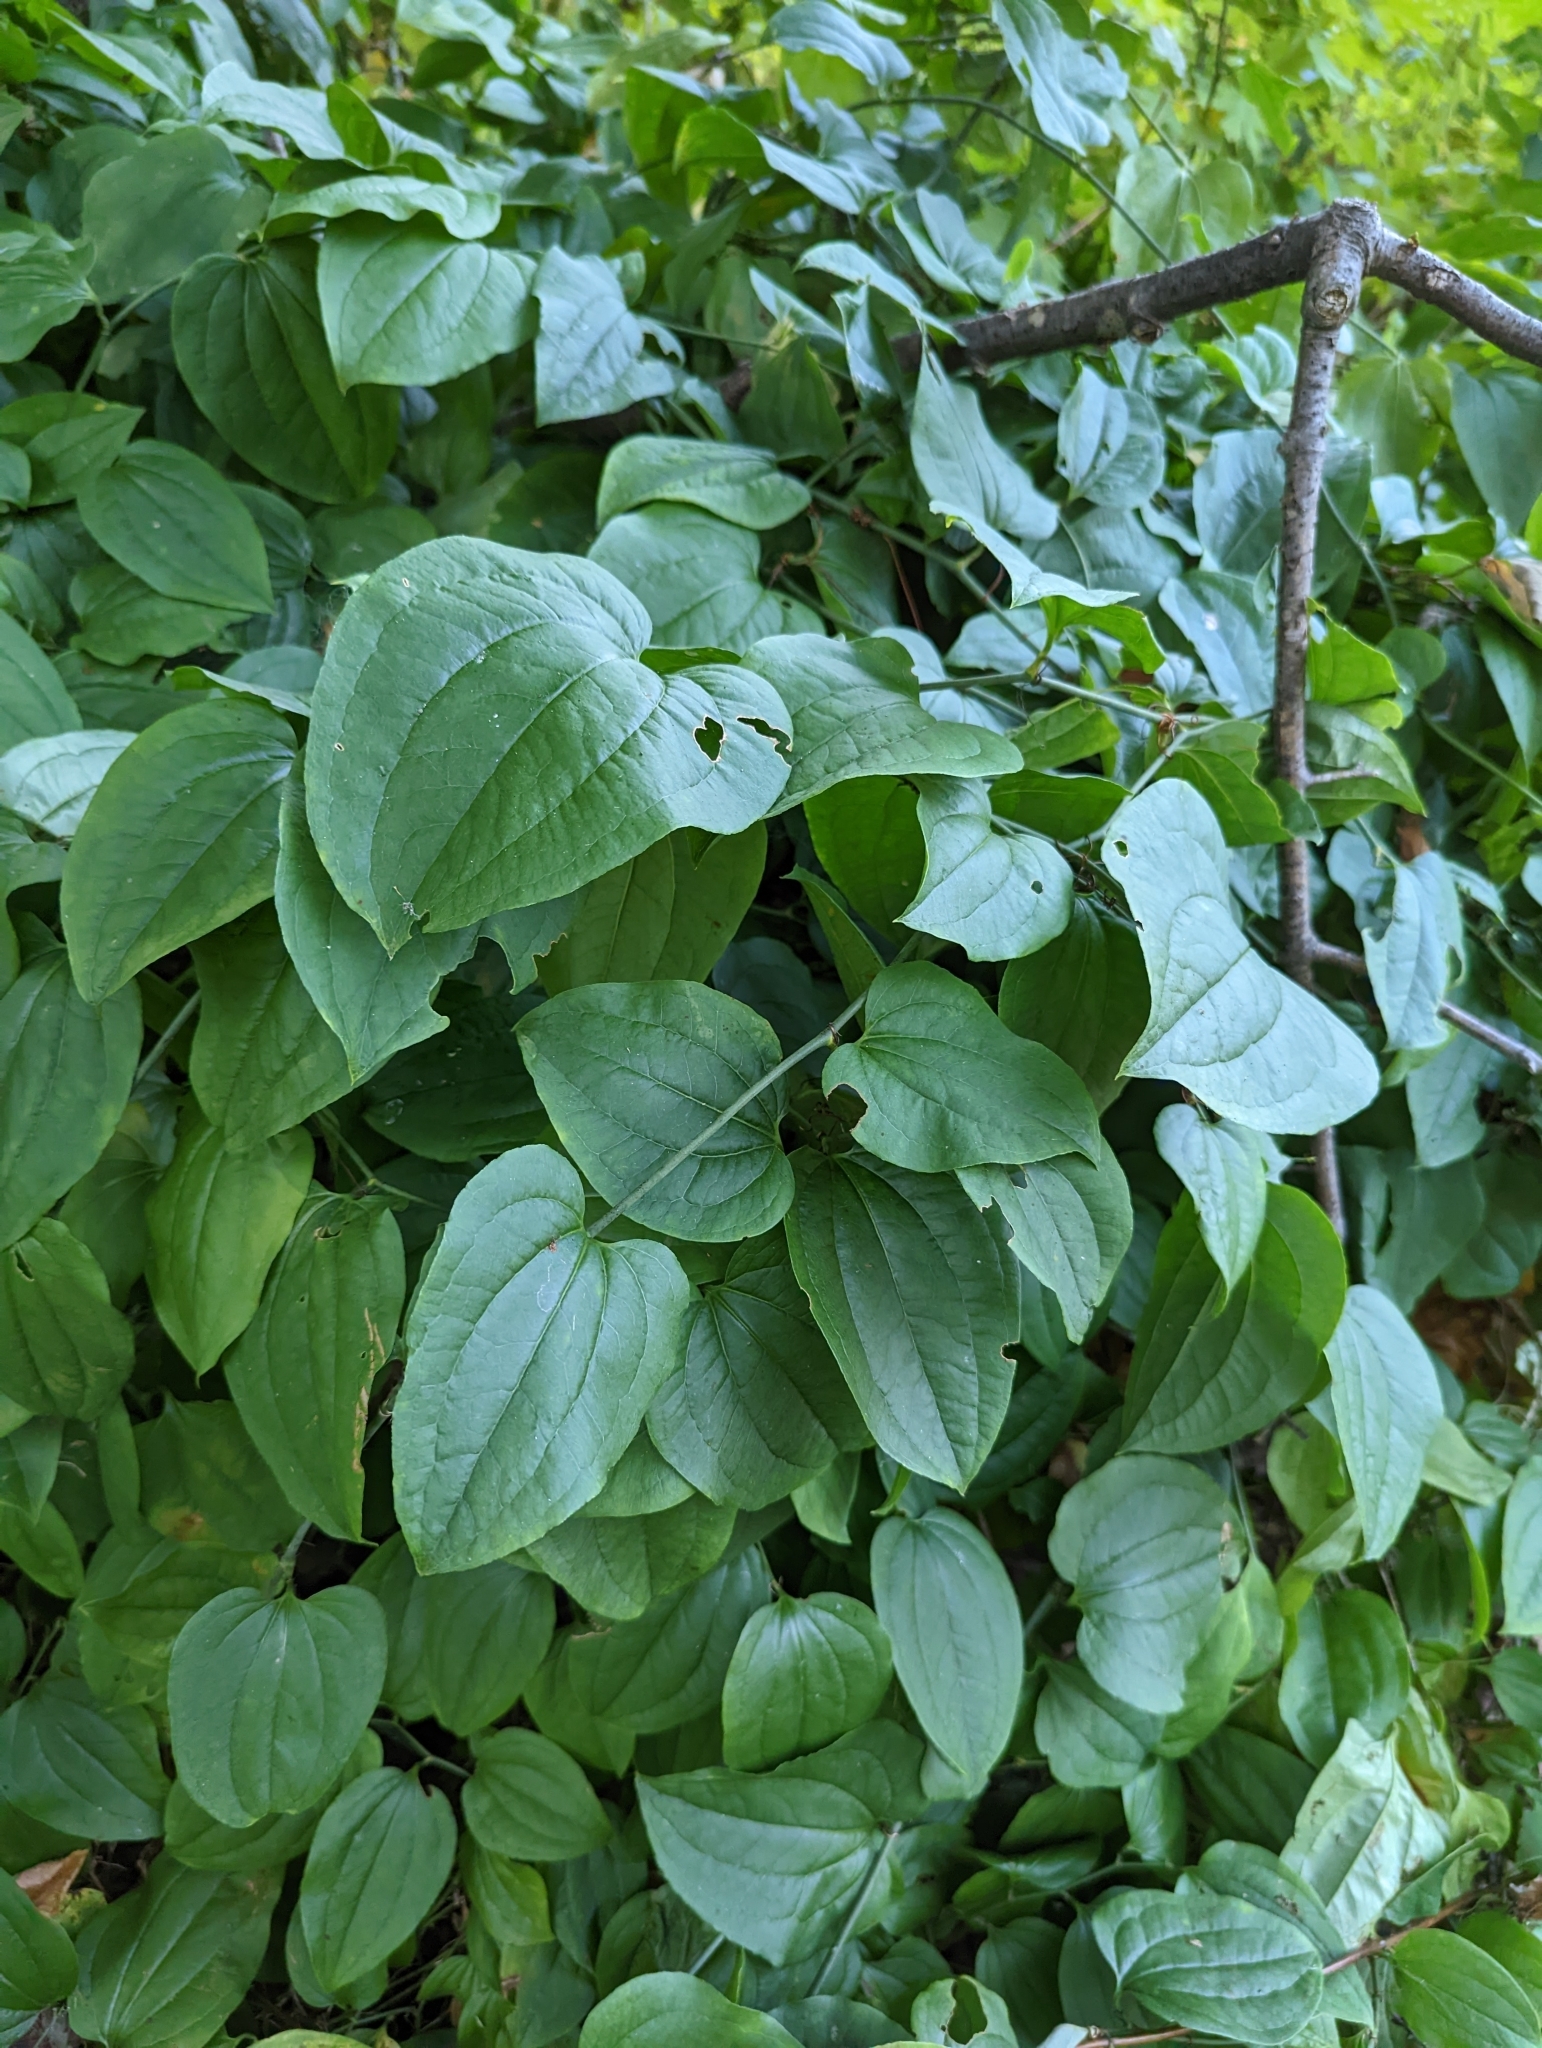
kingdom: Plantae
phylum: Tracheophyta
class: Liliopsida
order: Liliales
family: Smilacaceae
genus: Smilax
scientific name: Smilax tamnoides
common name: Hellfetter
